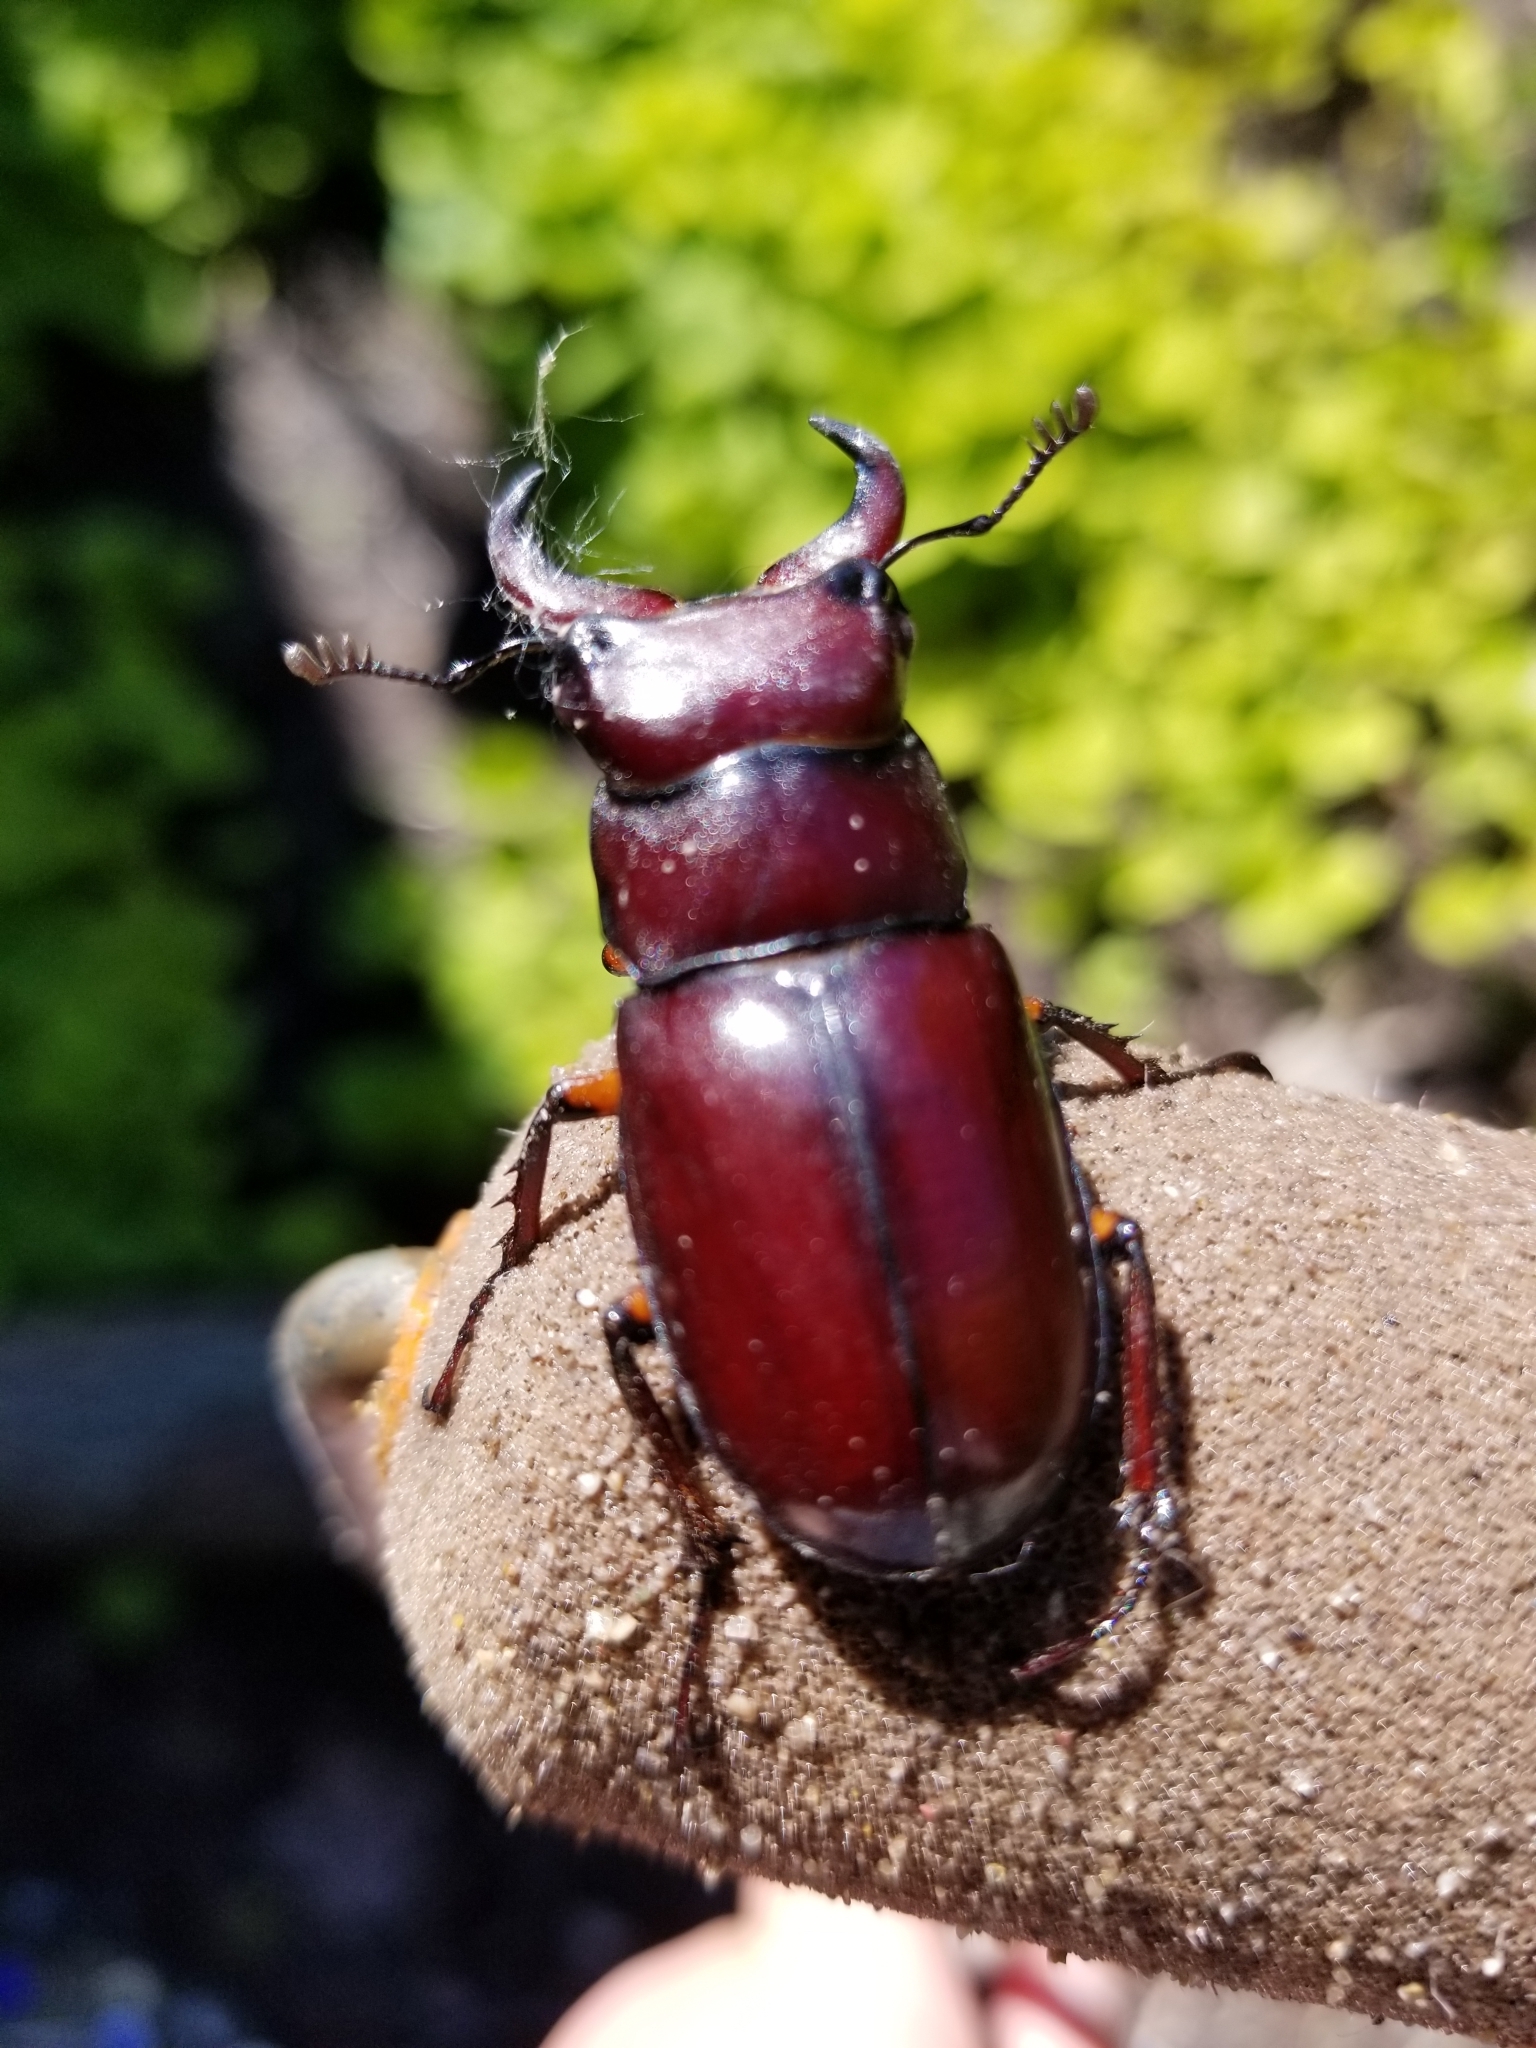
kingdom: Animalia
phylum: Arthropoda
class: Insecta
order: Coleoptera
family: Lucanidae
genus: Lucanus
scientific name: Lucanus capreolus
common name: Stag beetle
